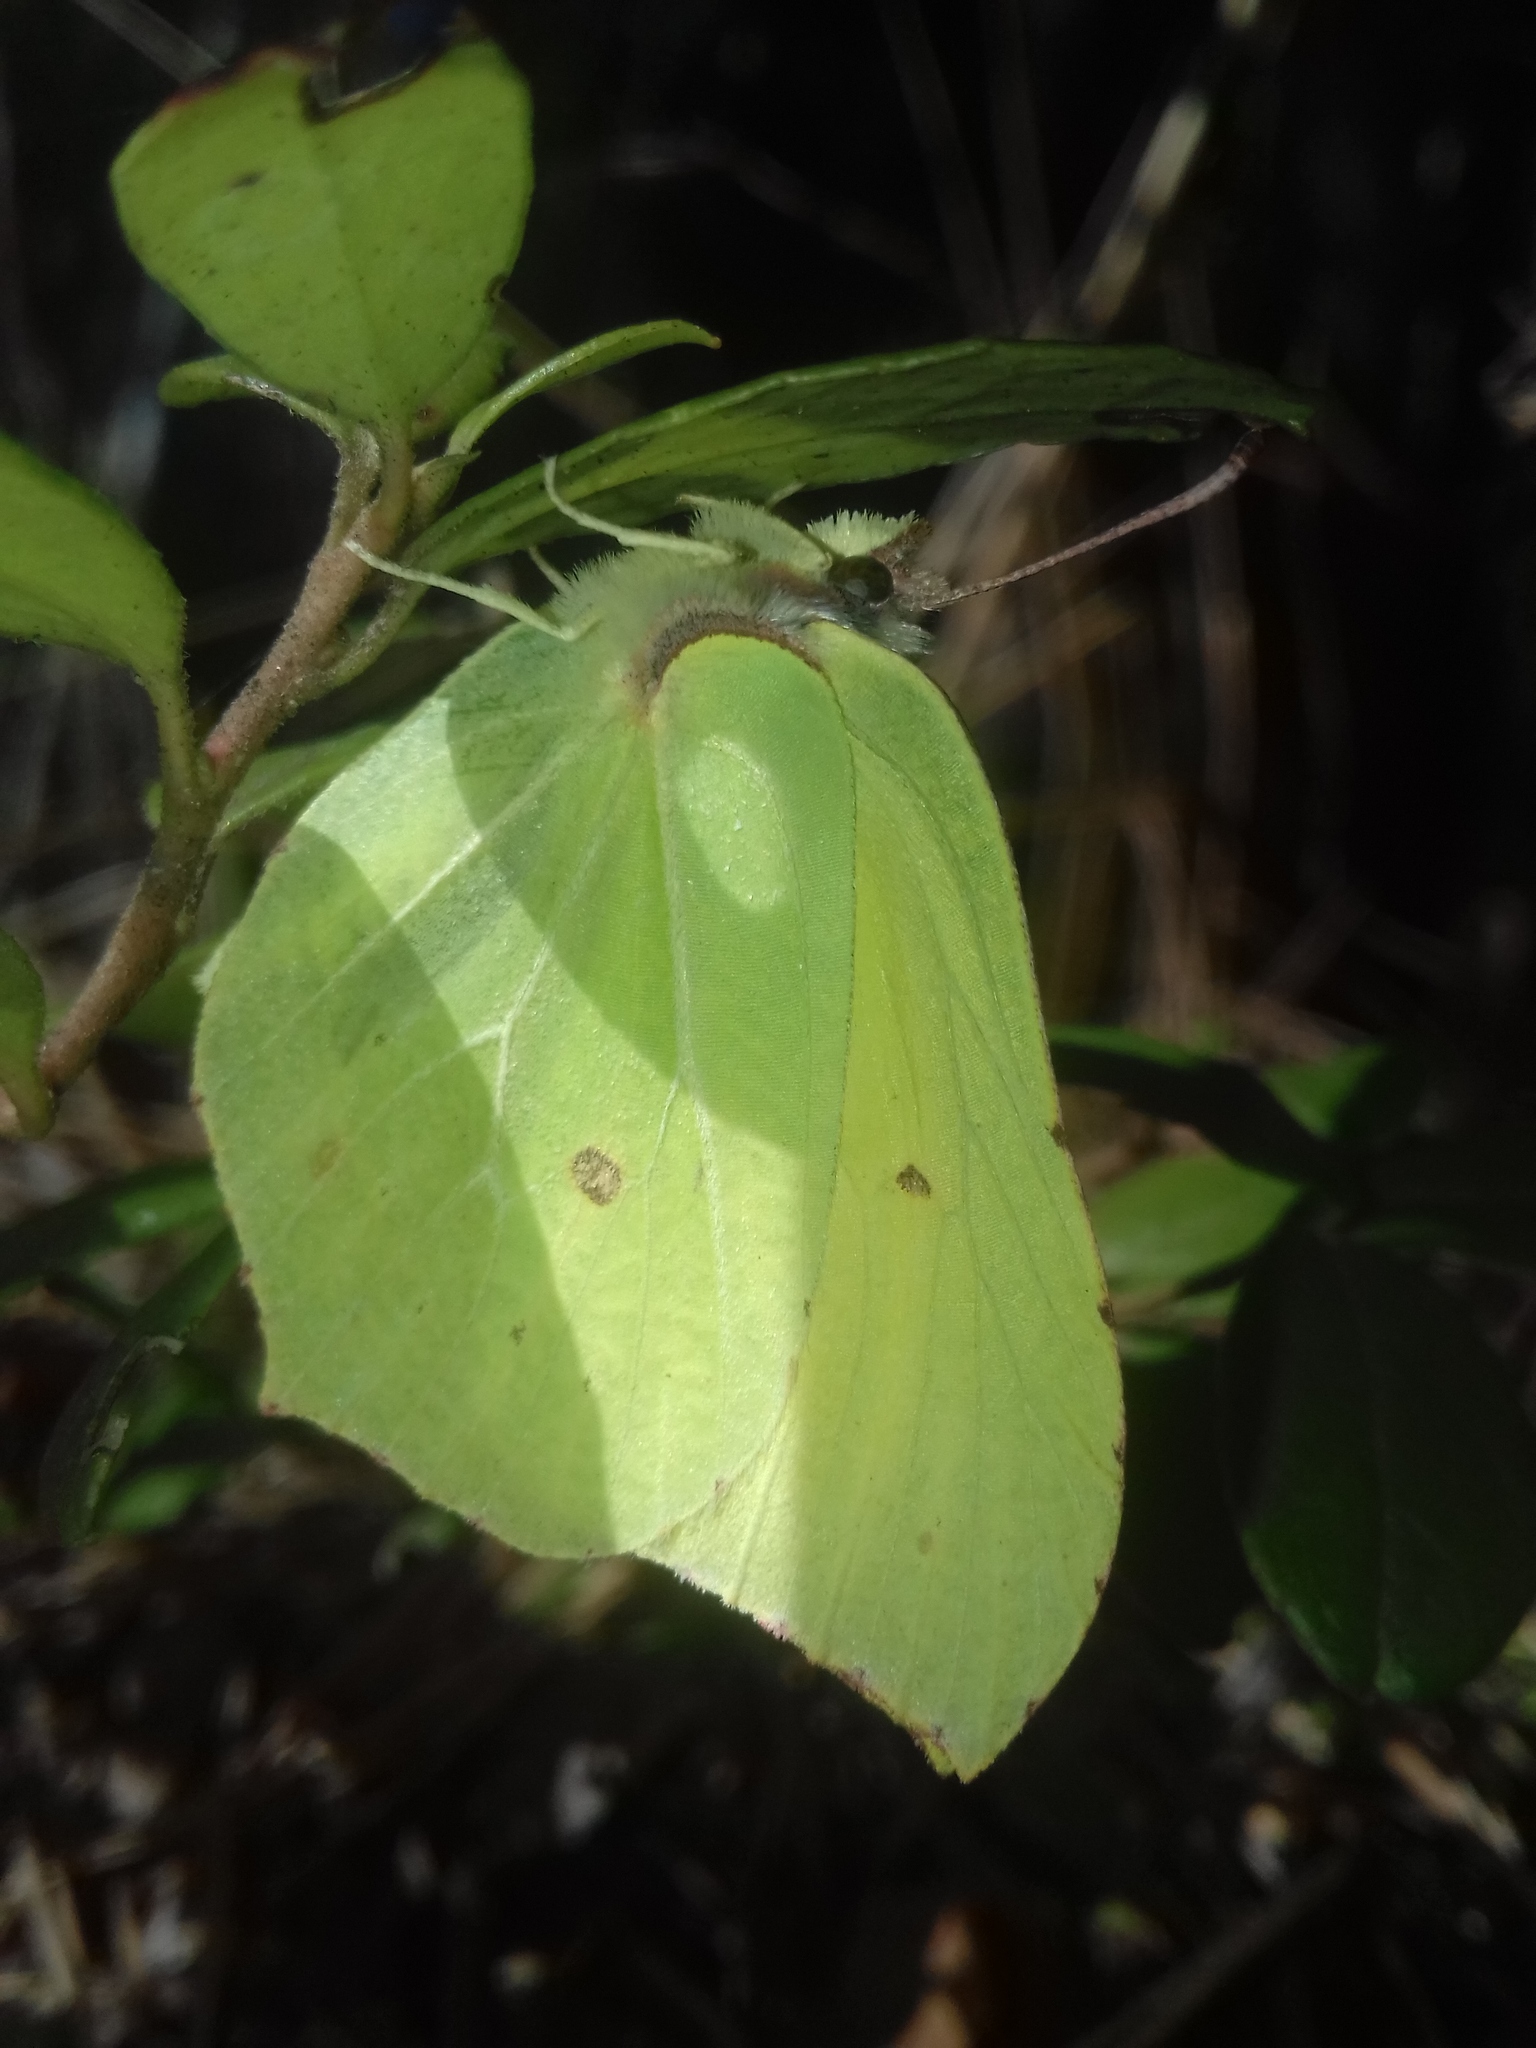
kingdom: Animalia
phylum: Arthropoda
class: Insecta
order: Lepidoptera
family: Pieridae
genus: Gonepteryx
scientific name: Gonepteryx rhamni
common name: Brimstone
